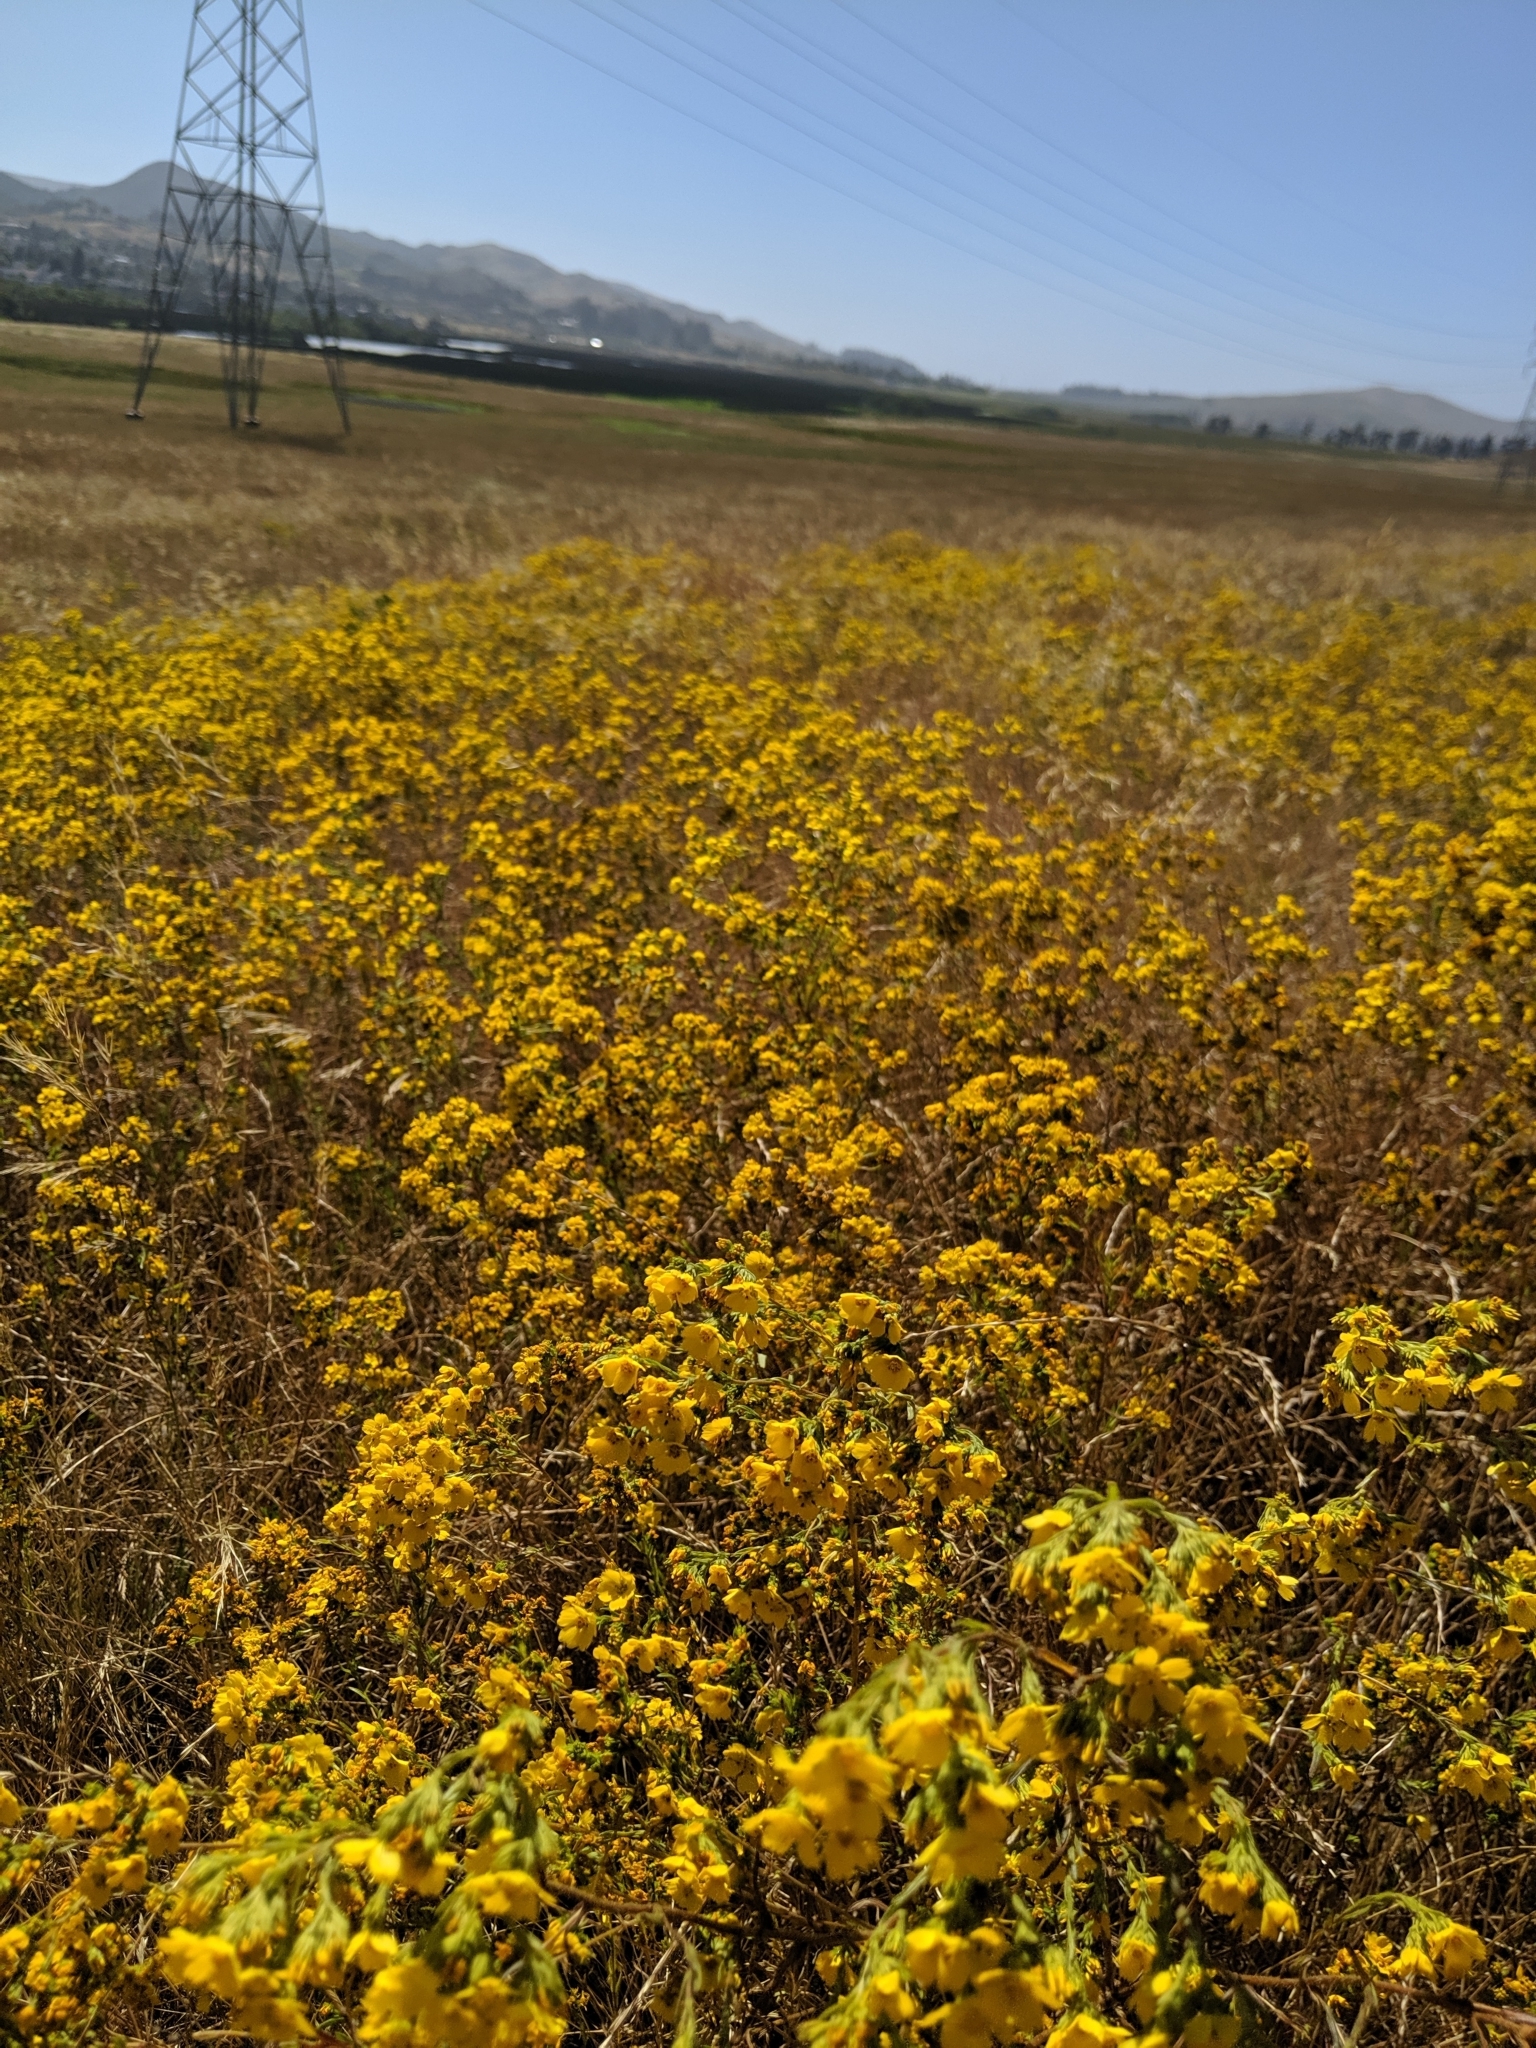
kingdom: Plantae
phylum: Tracheophyta
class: Magnoliopsida
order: Asterales
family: Asteraceae
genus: Deinandra
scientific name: Deinandra fasciculata
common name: Clustered tarweed
